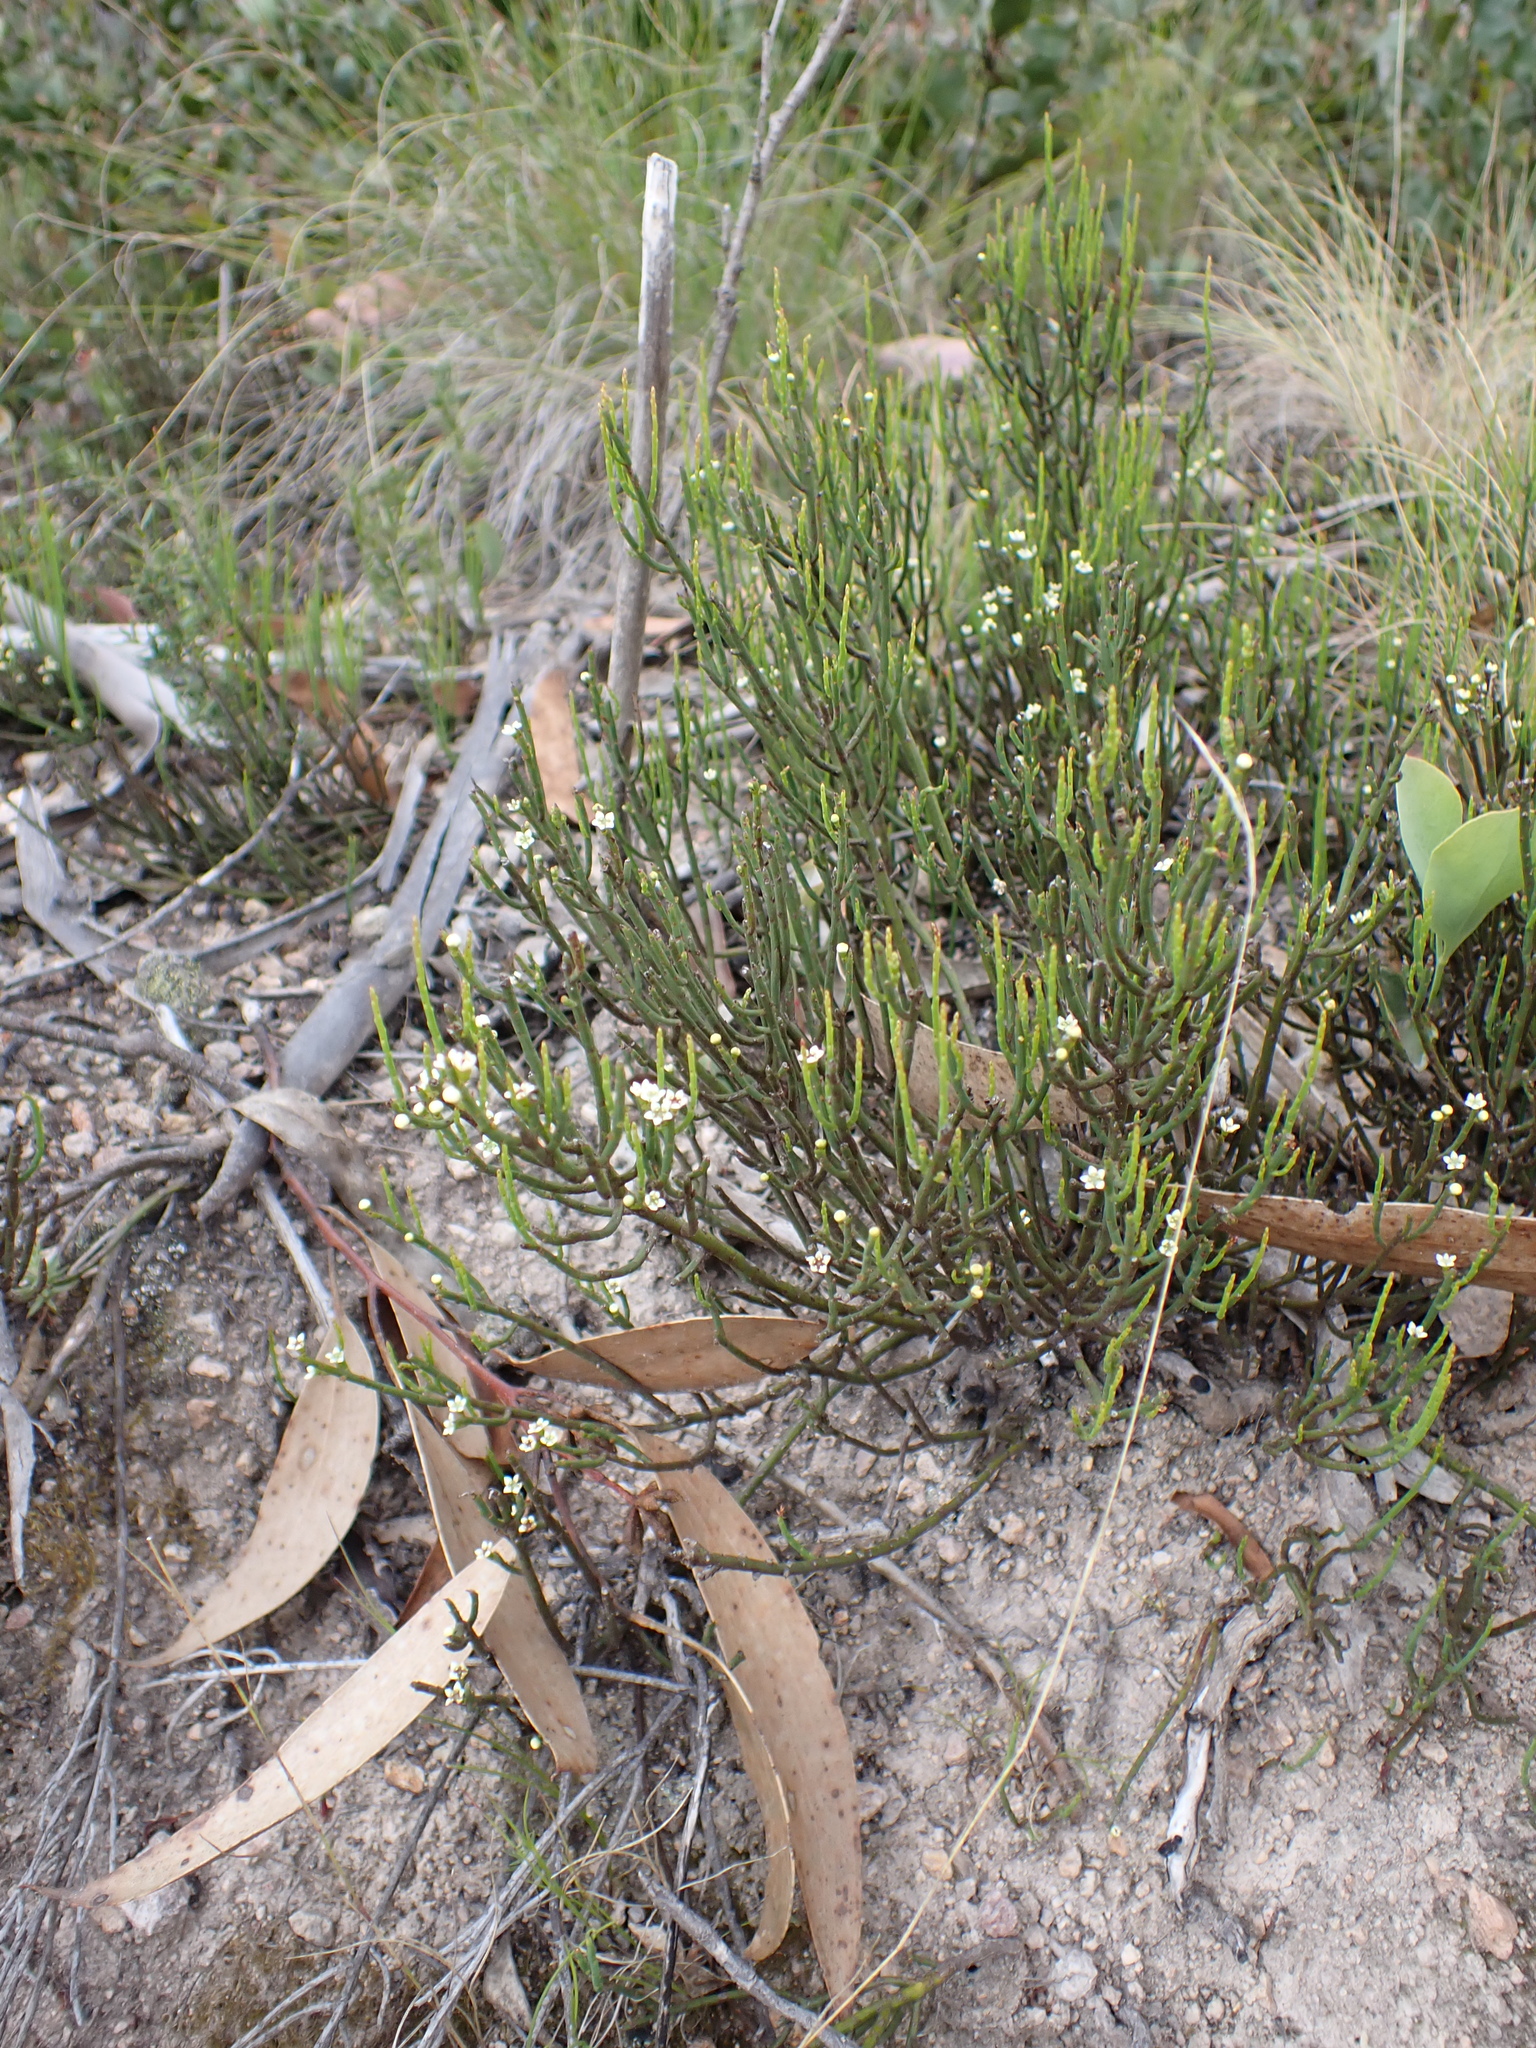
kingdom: Plantae
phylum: Tracheophyta
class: Magnoliopsida
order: Santalales
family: Amphorogynaceae
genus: Choretrum
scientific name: Choretrum pauciflorum
